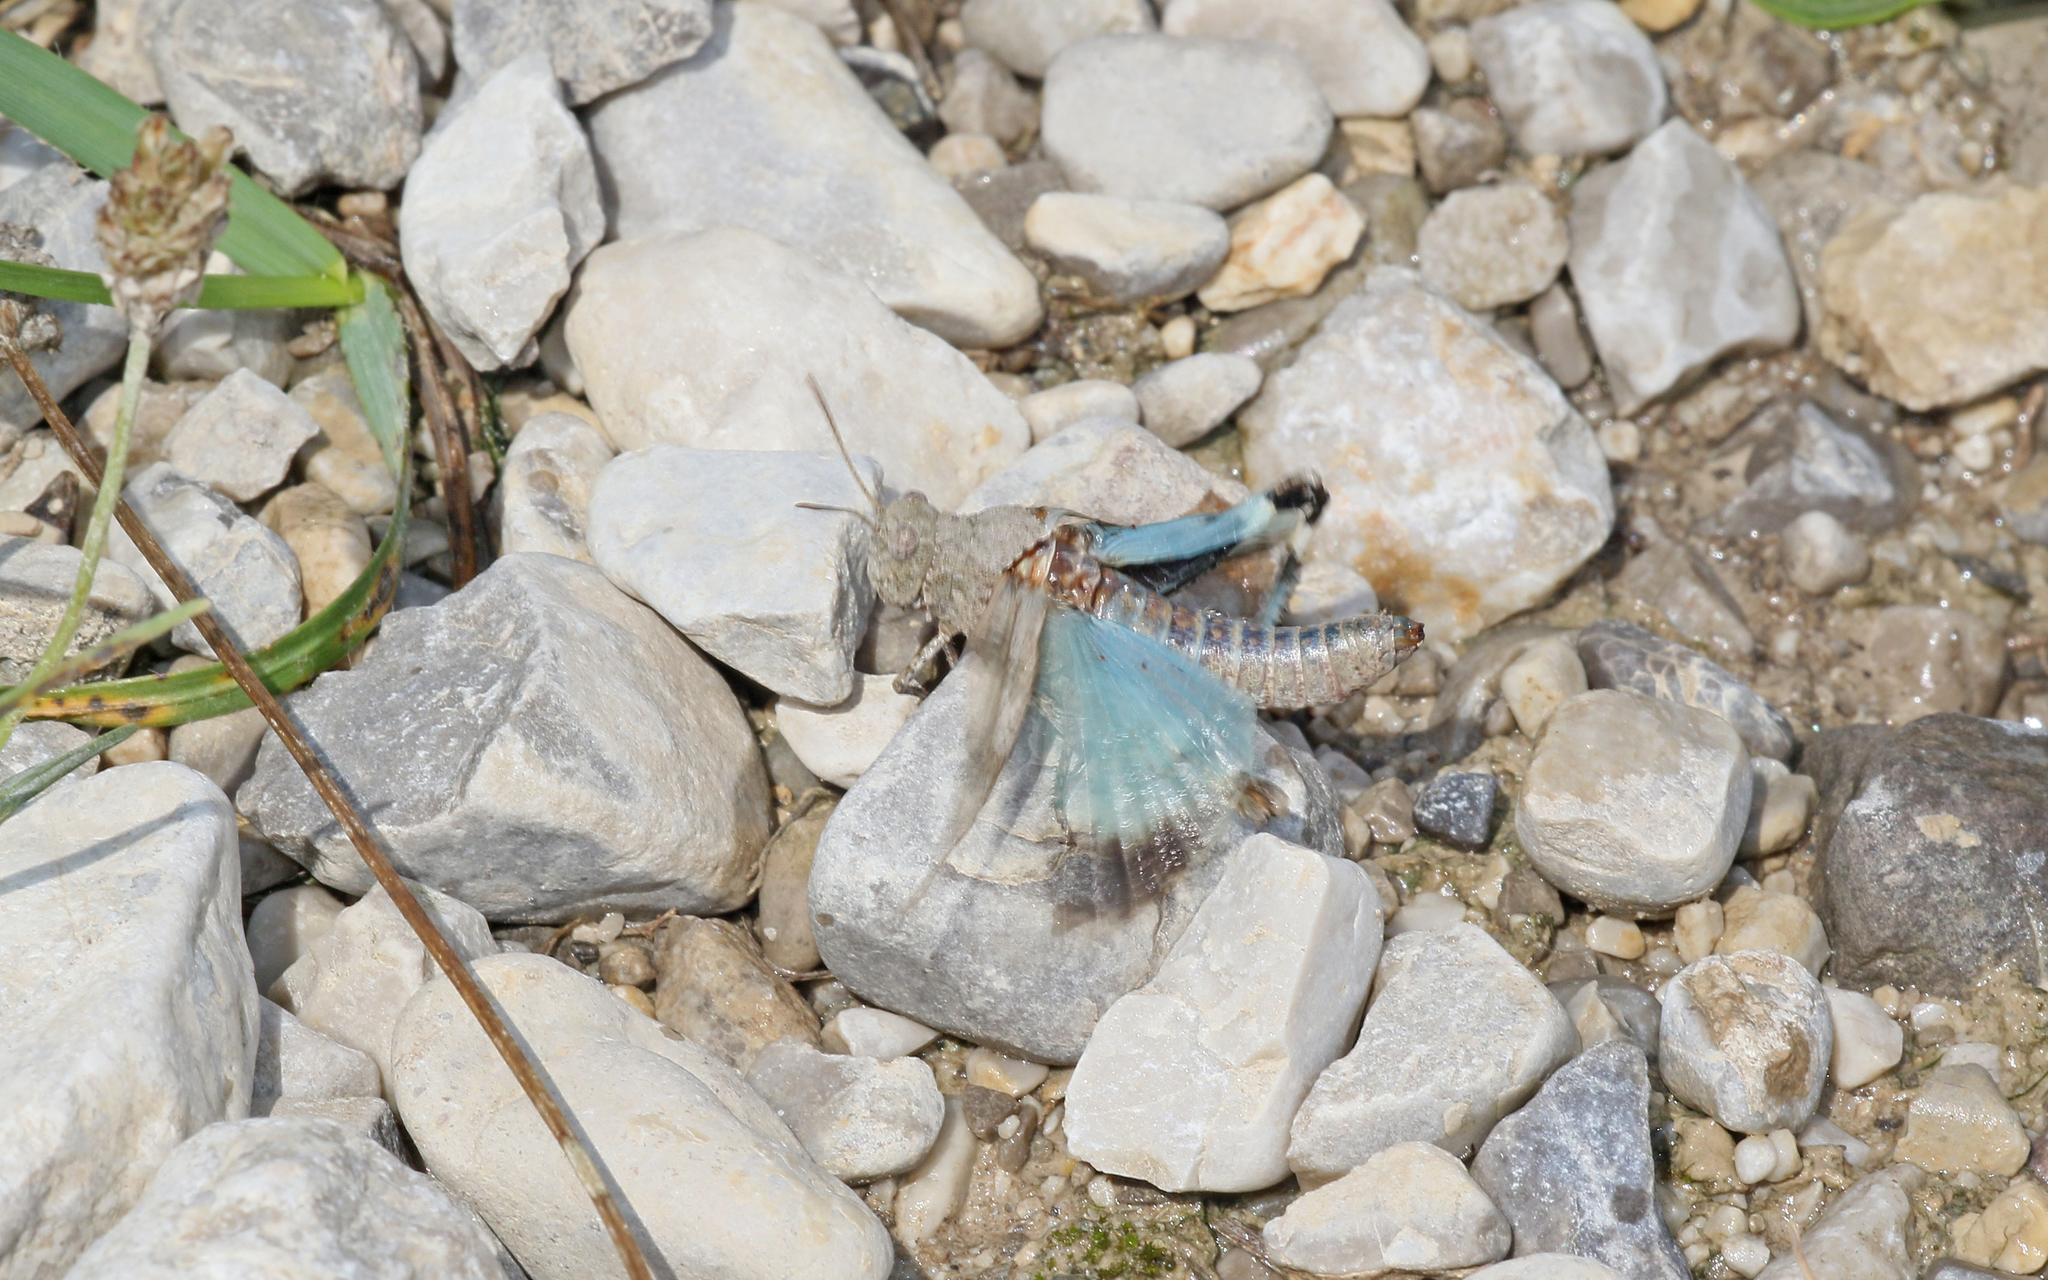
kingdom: Animalia
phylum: Arthropoda
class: Insecta
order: Orthoptera
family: Acrididae
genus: Oedipoda
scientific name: Oedipoda caerulescens
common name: Blue-winged grasshopper
